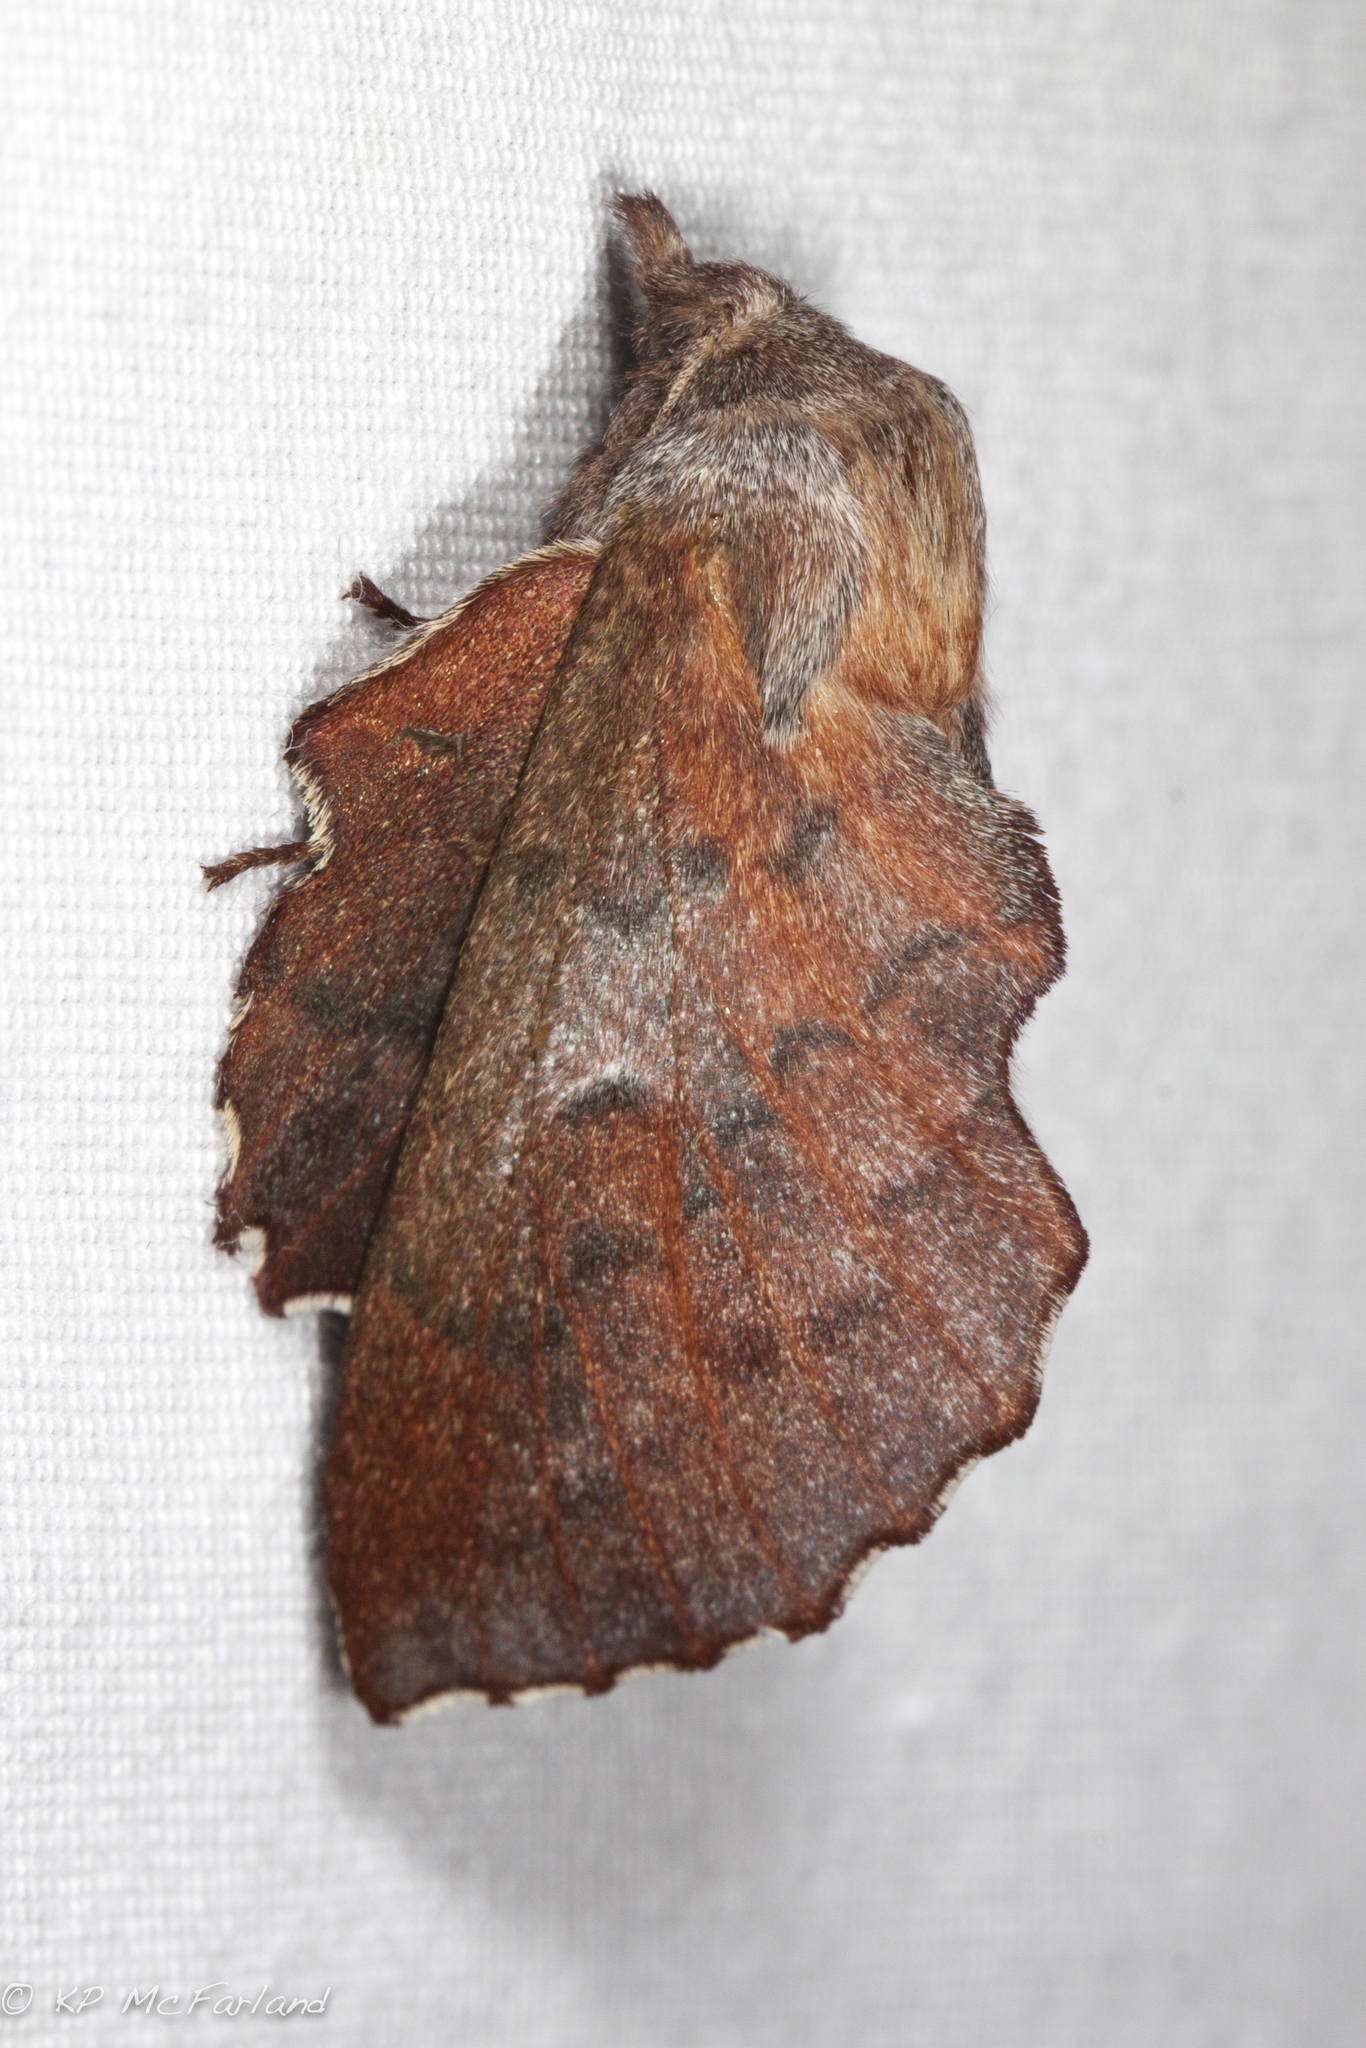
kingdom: Animalia
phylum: Arthropoda
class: Insecta
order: Lepidoptera
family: Lasiocampidae
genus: Phyllodesma
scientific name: Phyllodesma americana
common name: American lappet moth
